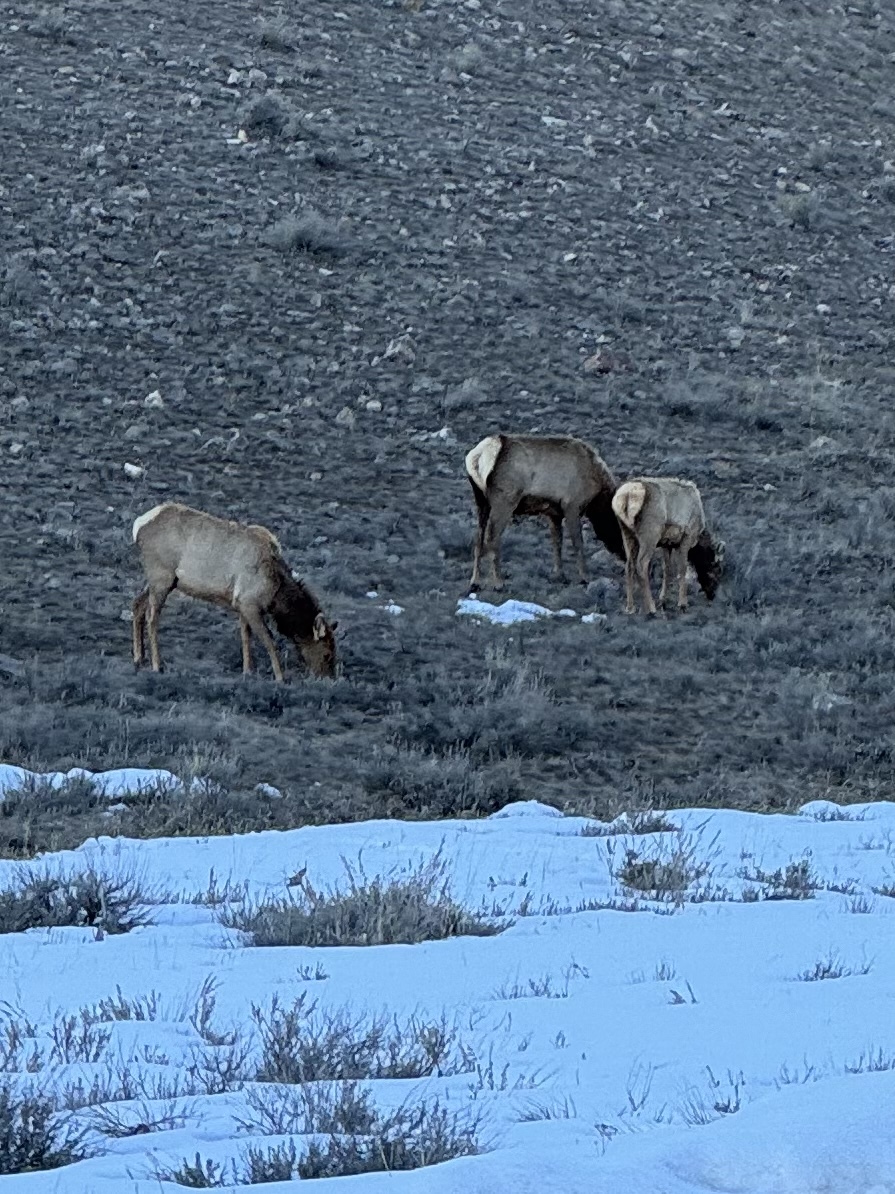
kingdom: Animalia
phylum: Chordata
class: Mammalia
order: Artiodactyla
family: Cervidae
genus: Cervus
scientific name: Cervus elaphus
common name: Red deer
